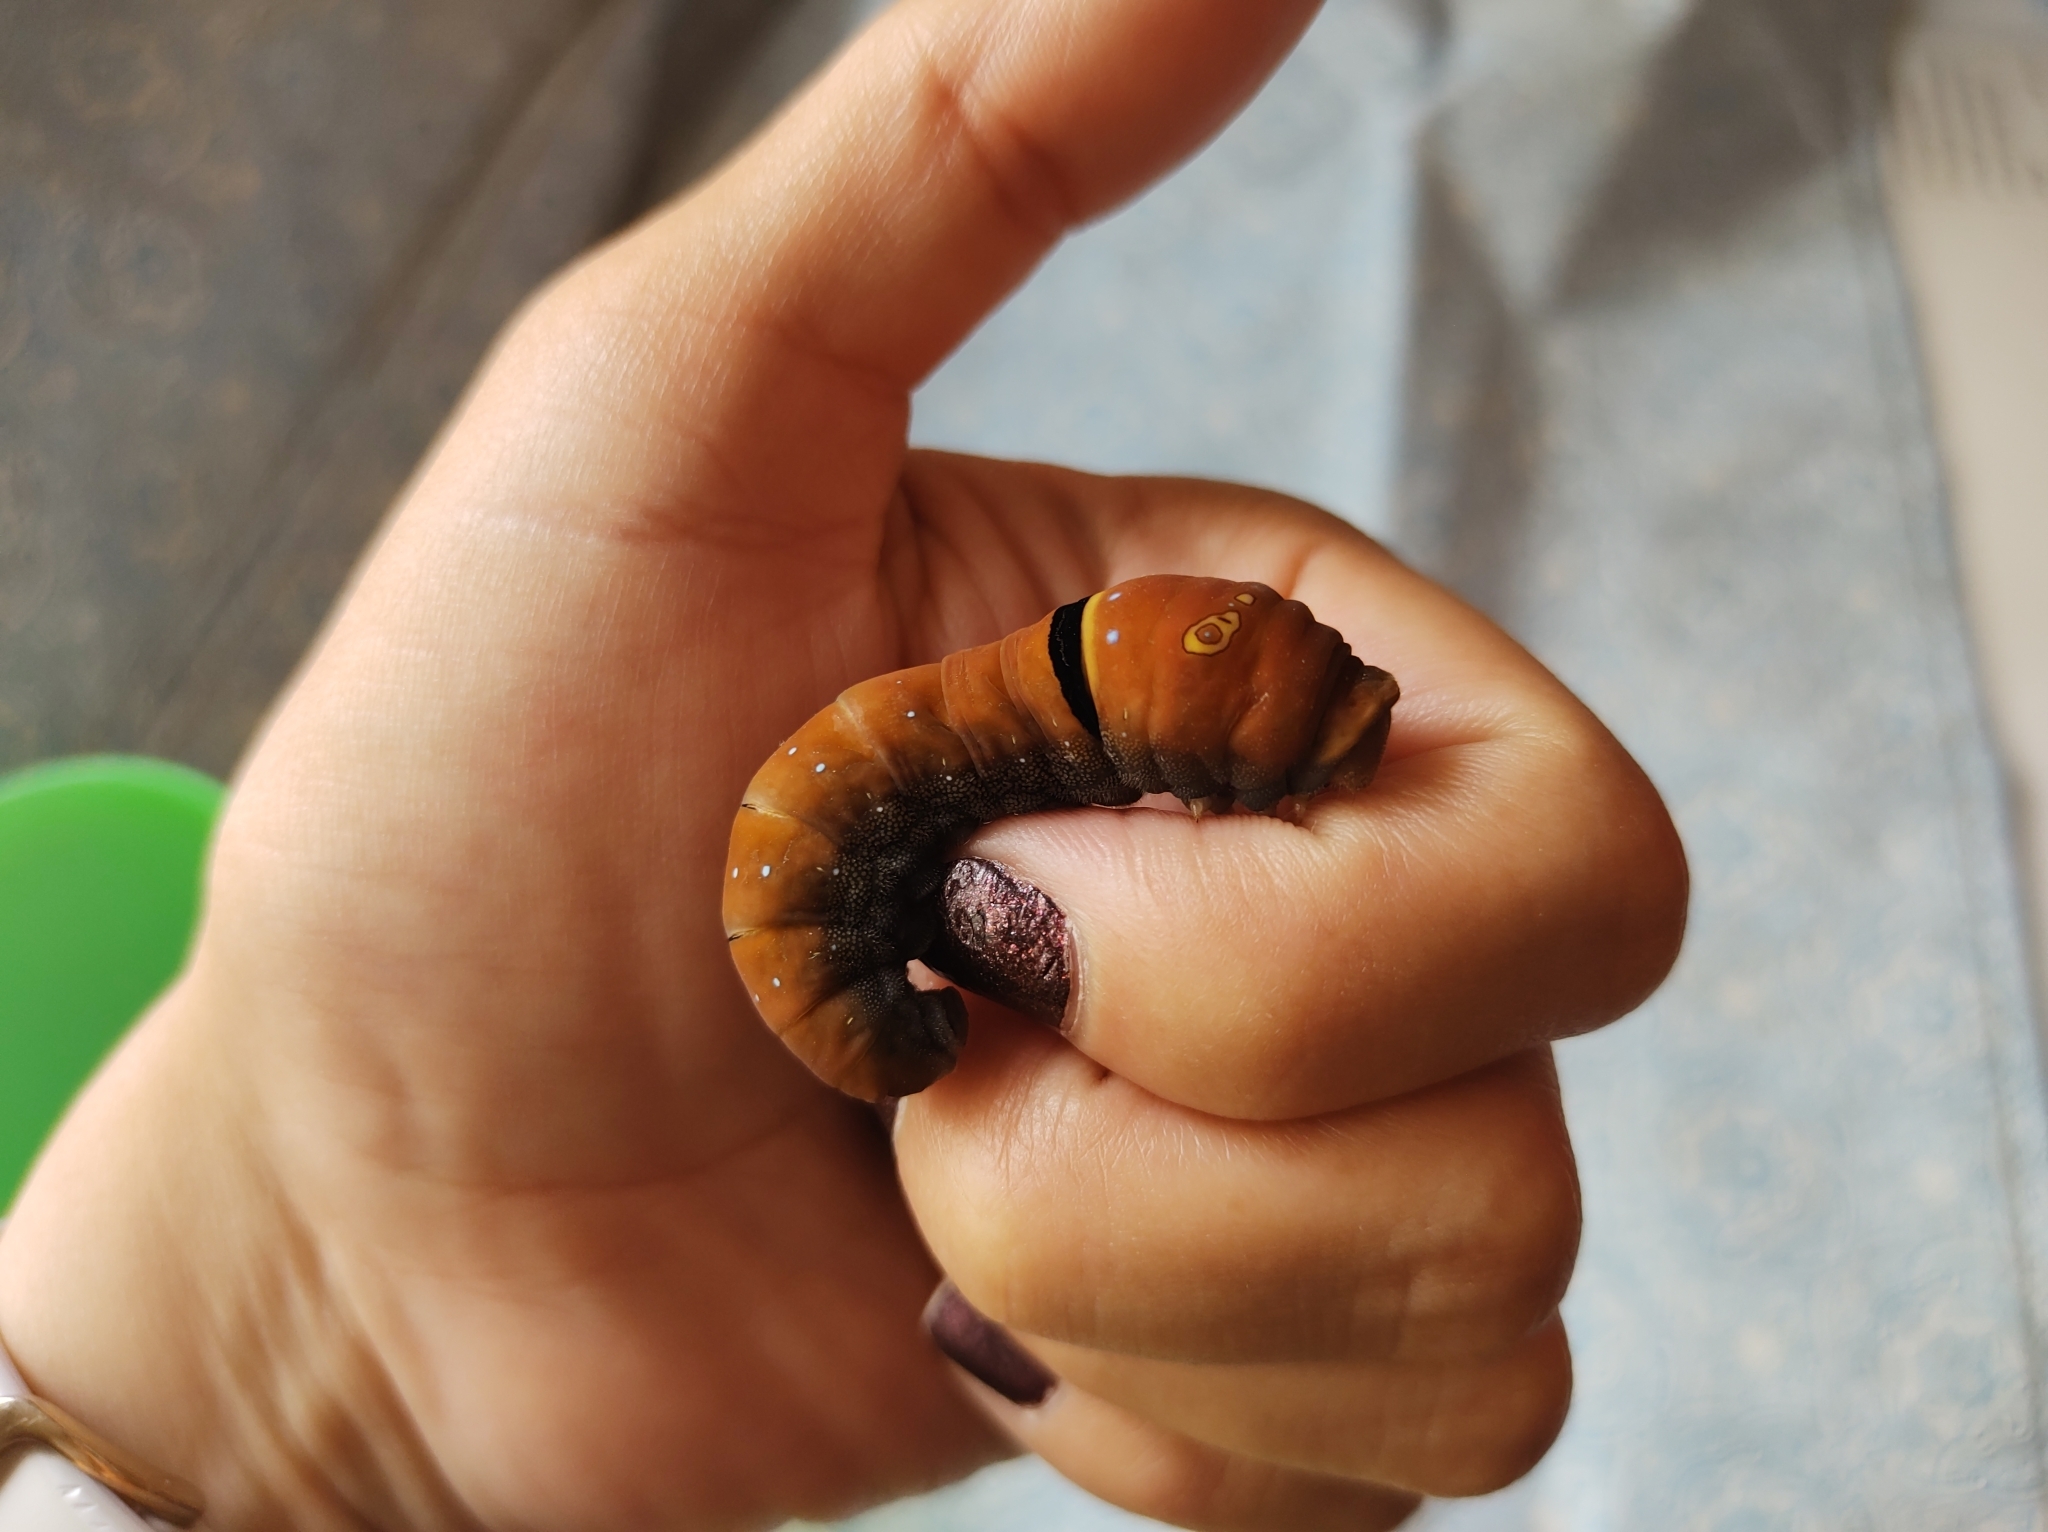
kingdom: Animalia
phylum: Arthropoda
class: Insecta
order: Lepidoptera
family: Papilionidae
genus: Papilio
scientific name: Papilio multicaudata
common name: Two-tailed tiger swallowtail
